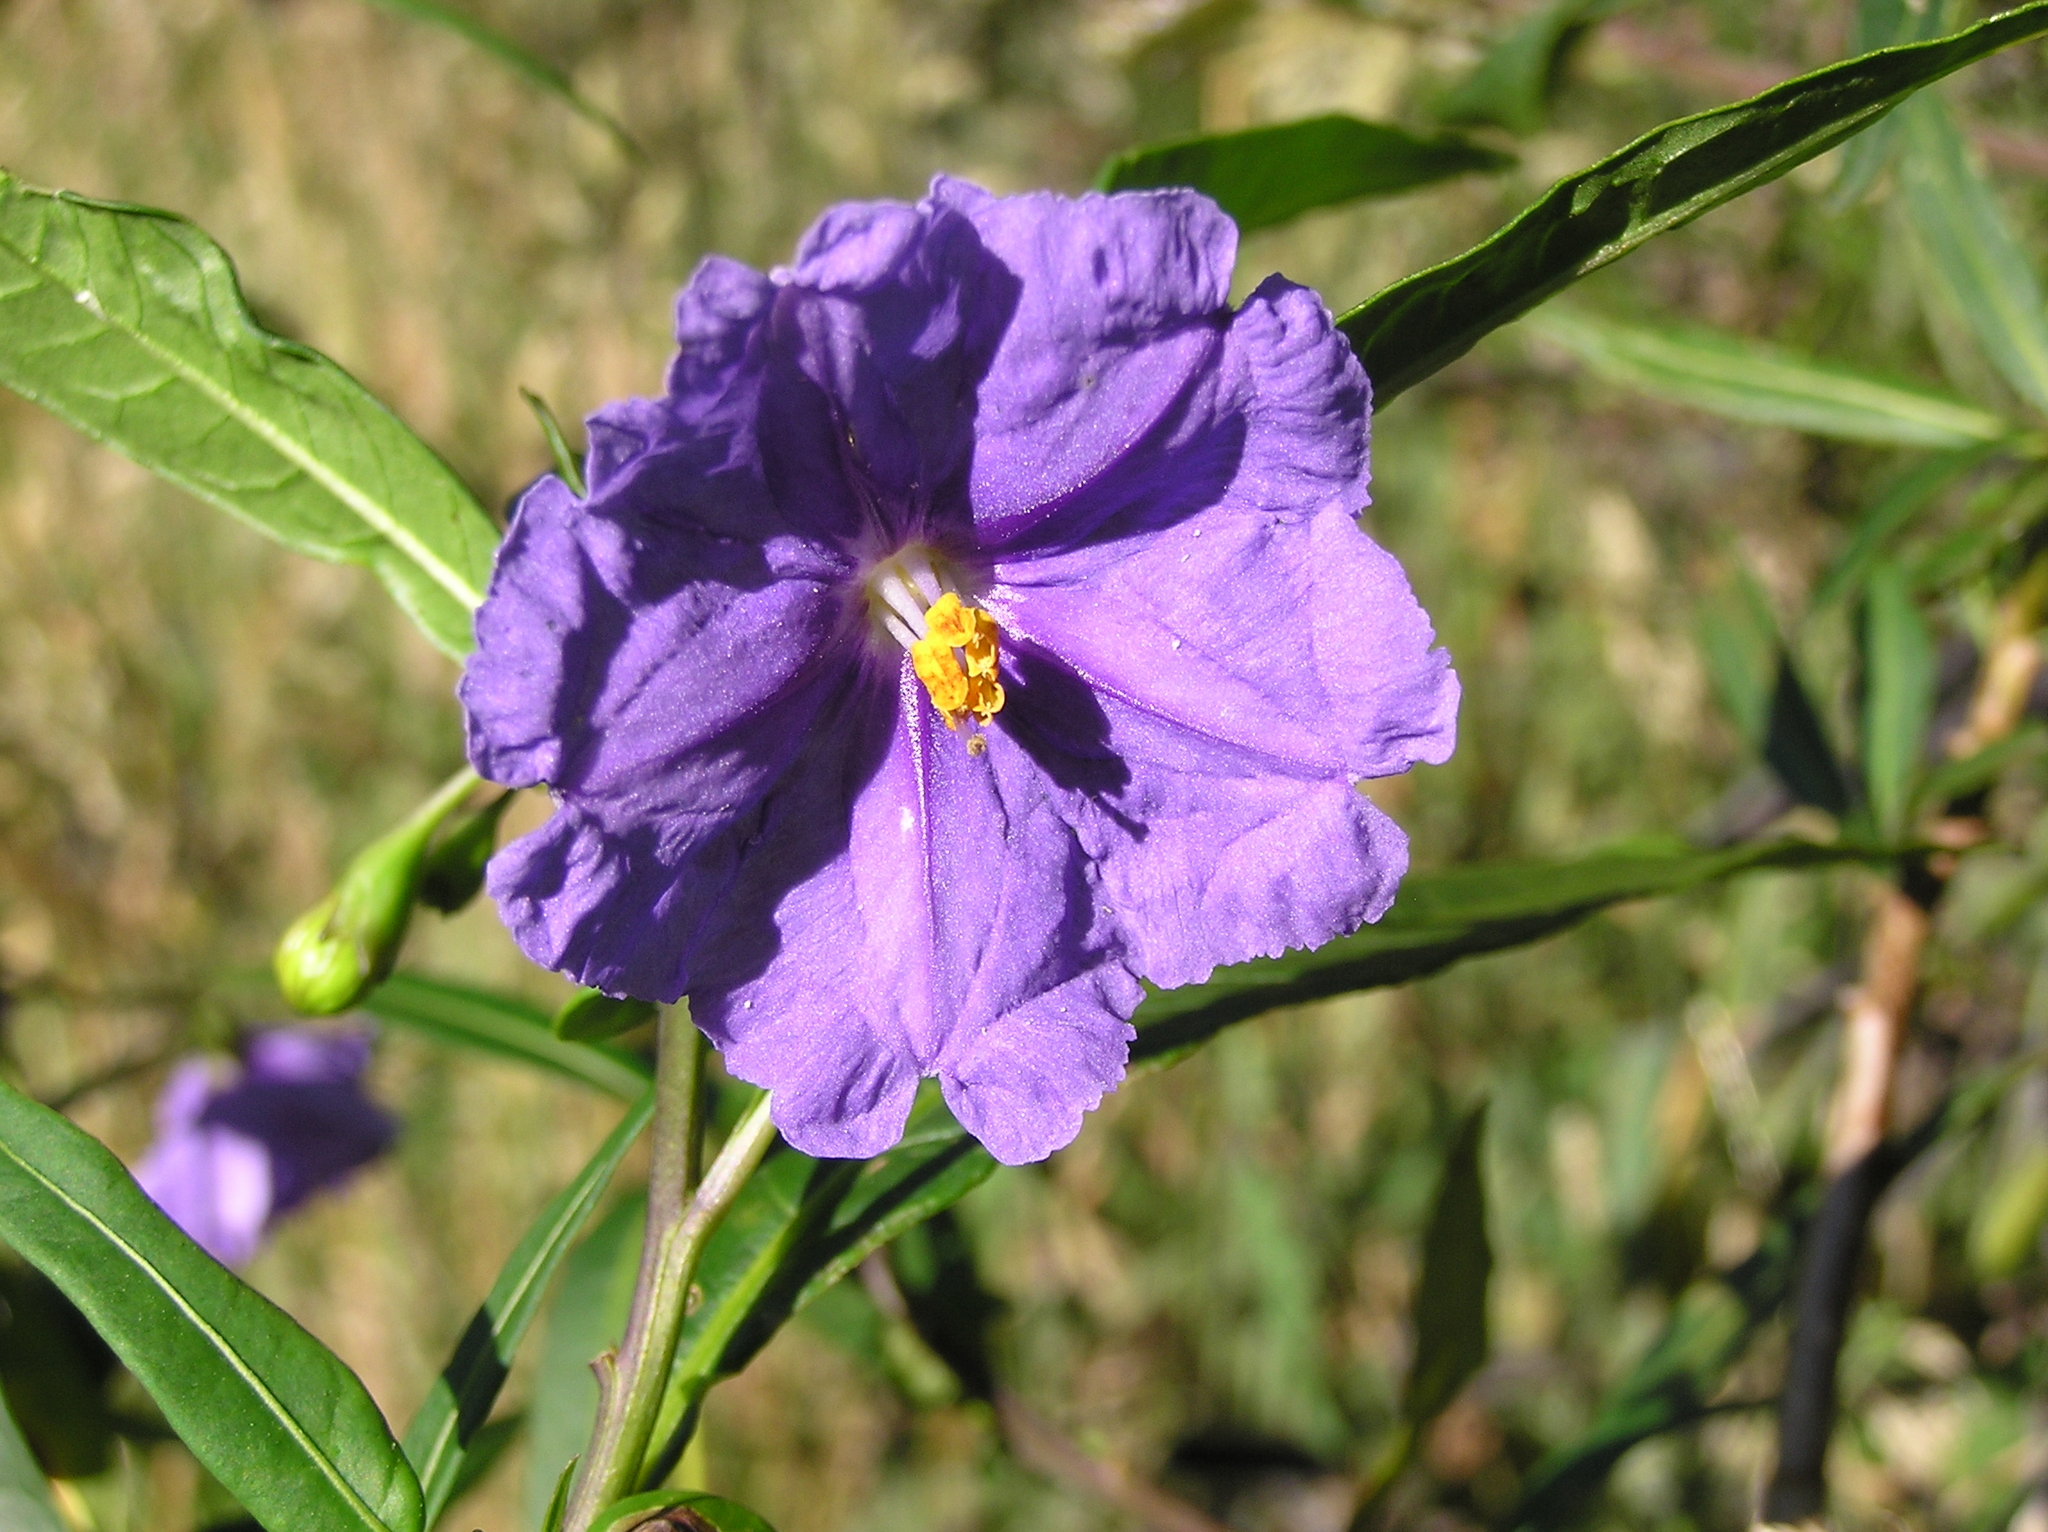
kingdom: Plantae
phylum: Tracheophyta
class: Magnoliopsida
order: Solanales
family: Solanaceae
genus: Solanum
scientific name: Solanum laciniatum
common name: Kangaroo-apple
